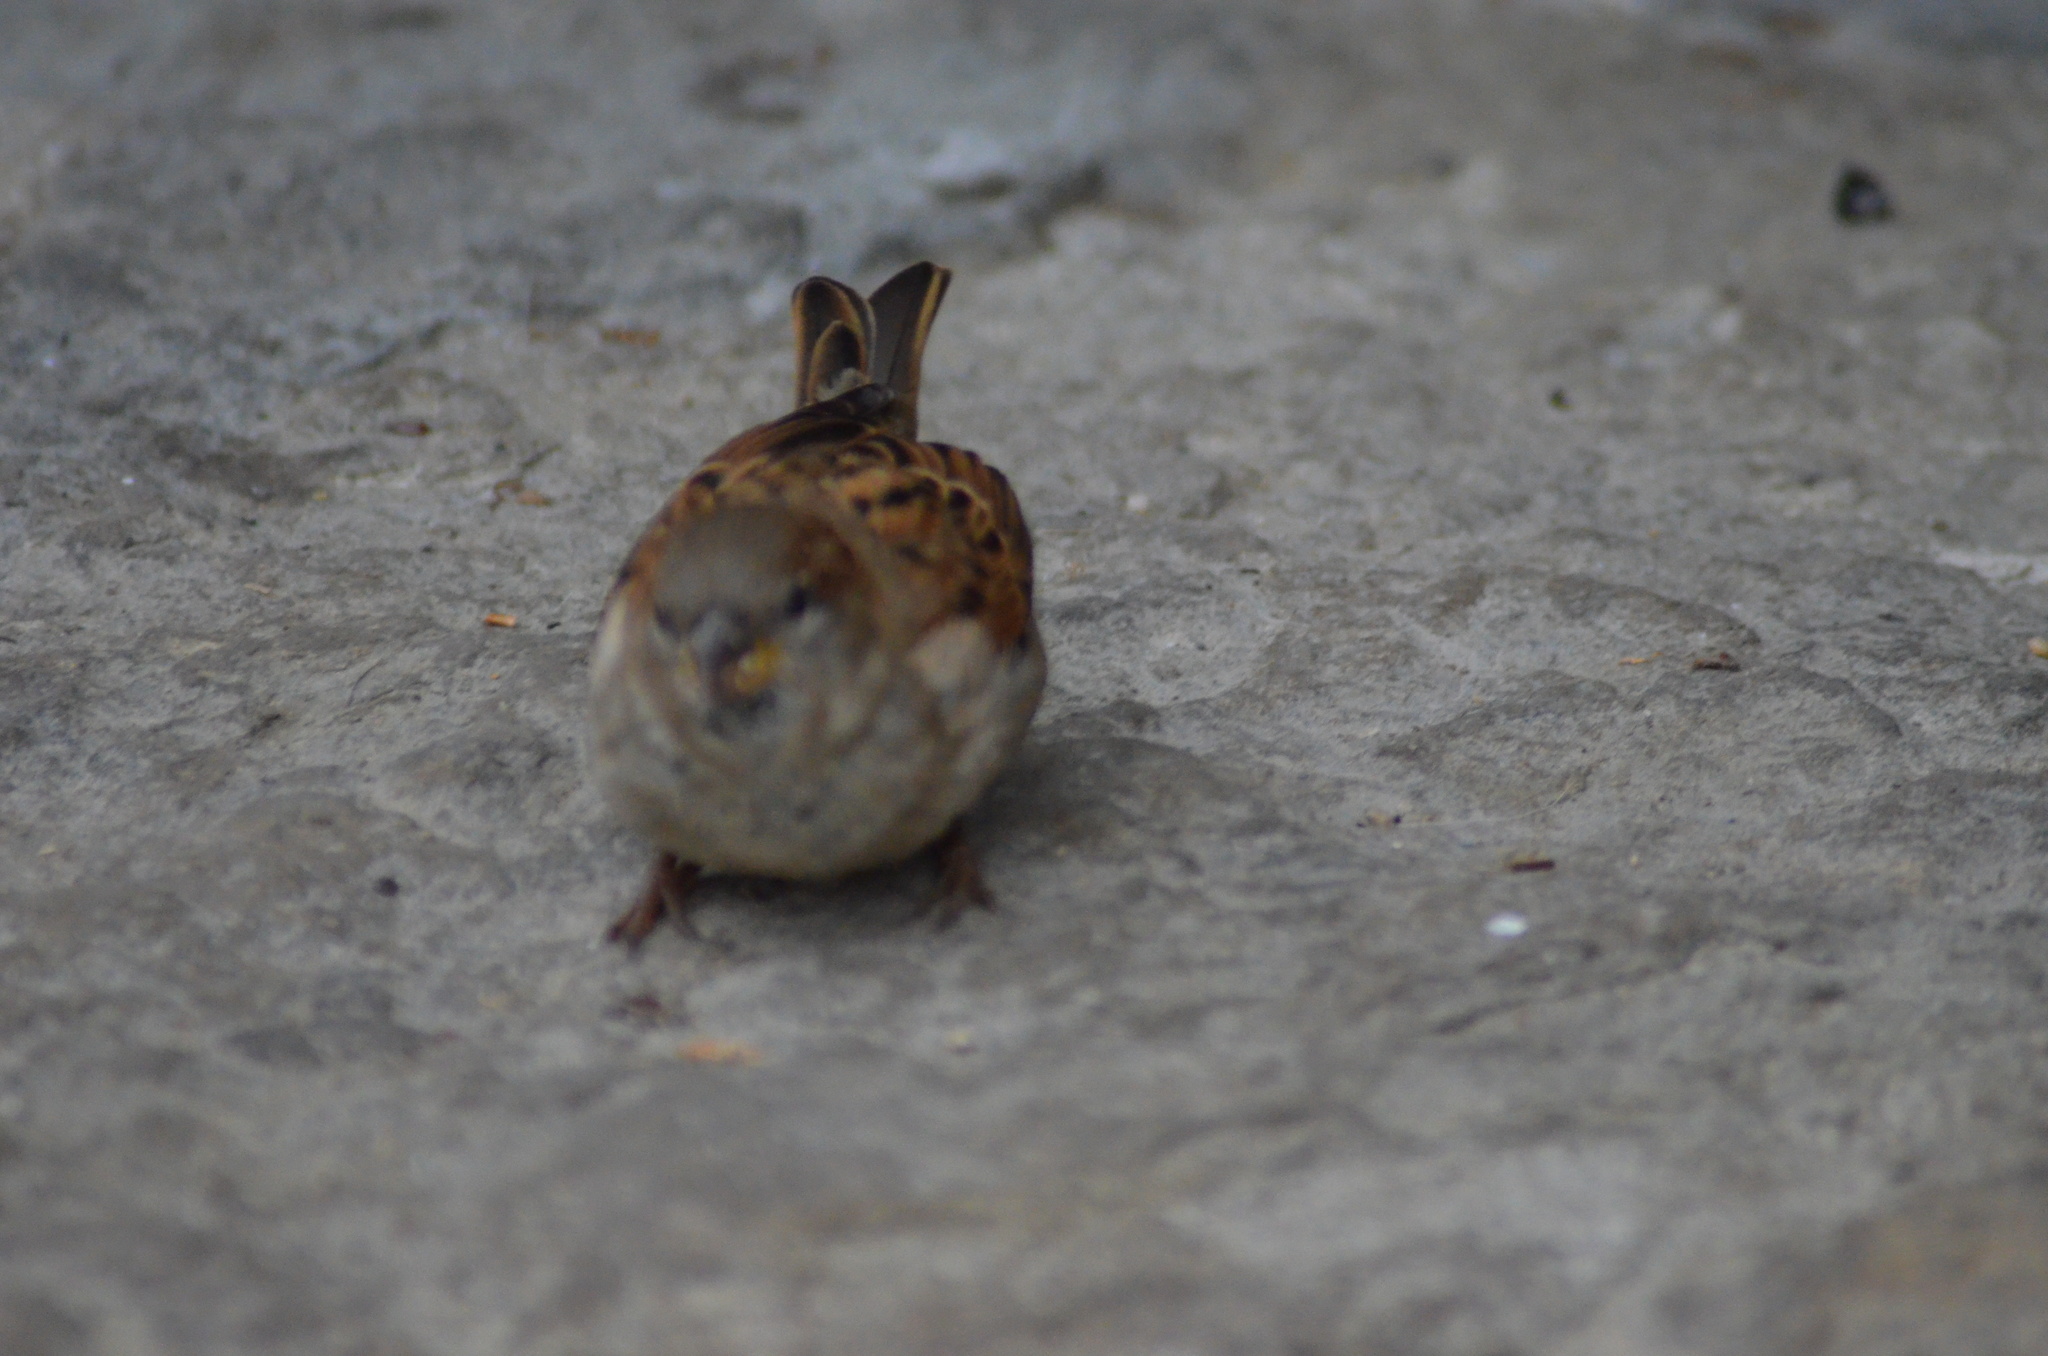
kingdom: Animalia
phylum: Chordata
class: Aves
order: Passeriformes
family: Passeridae
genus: Passer
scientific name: Passer domesticus
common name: House sparrow
